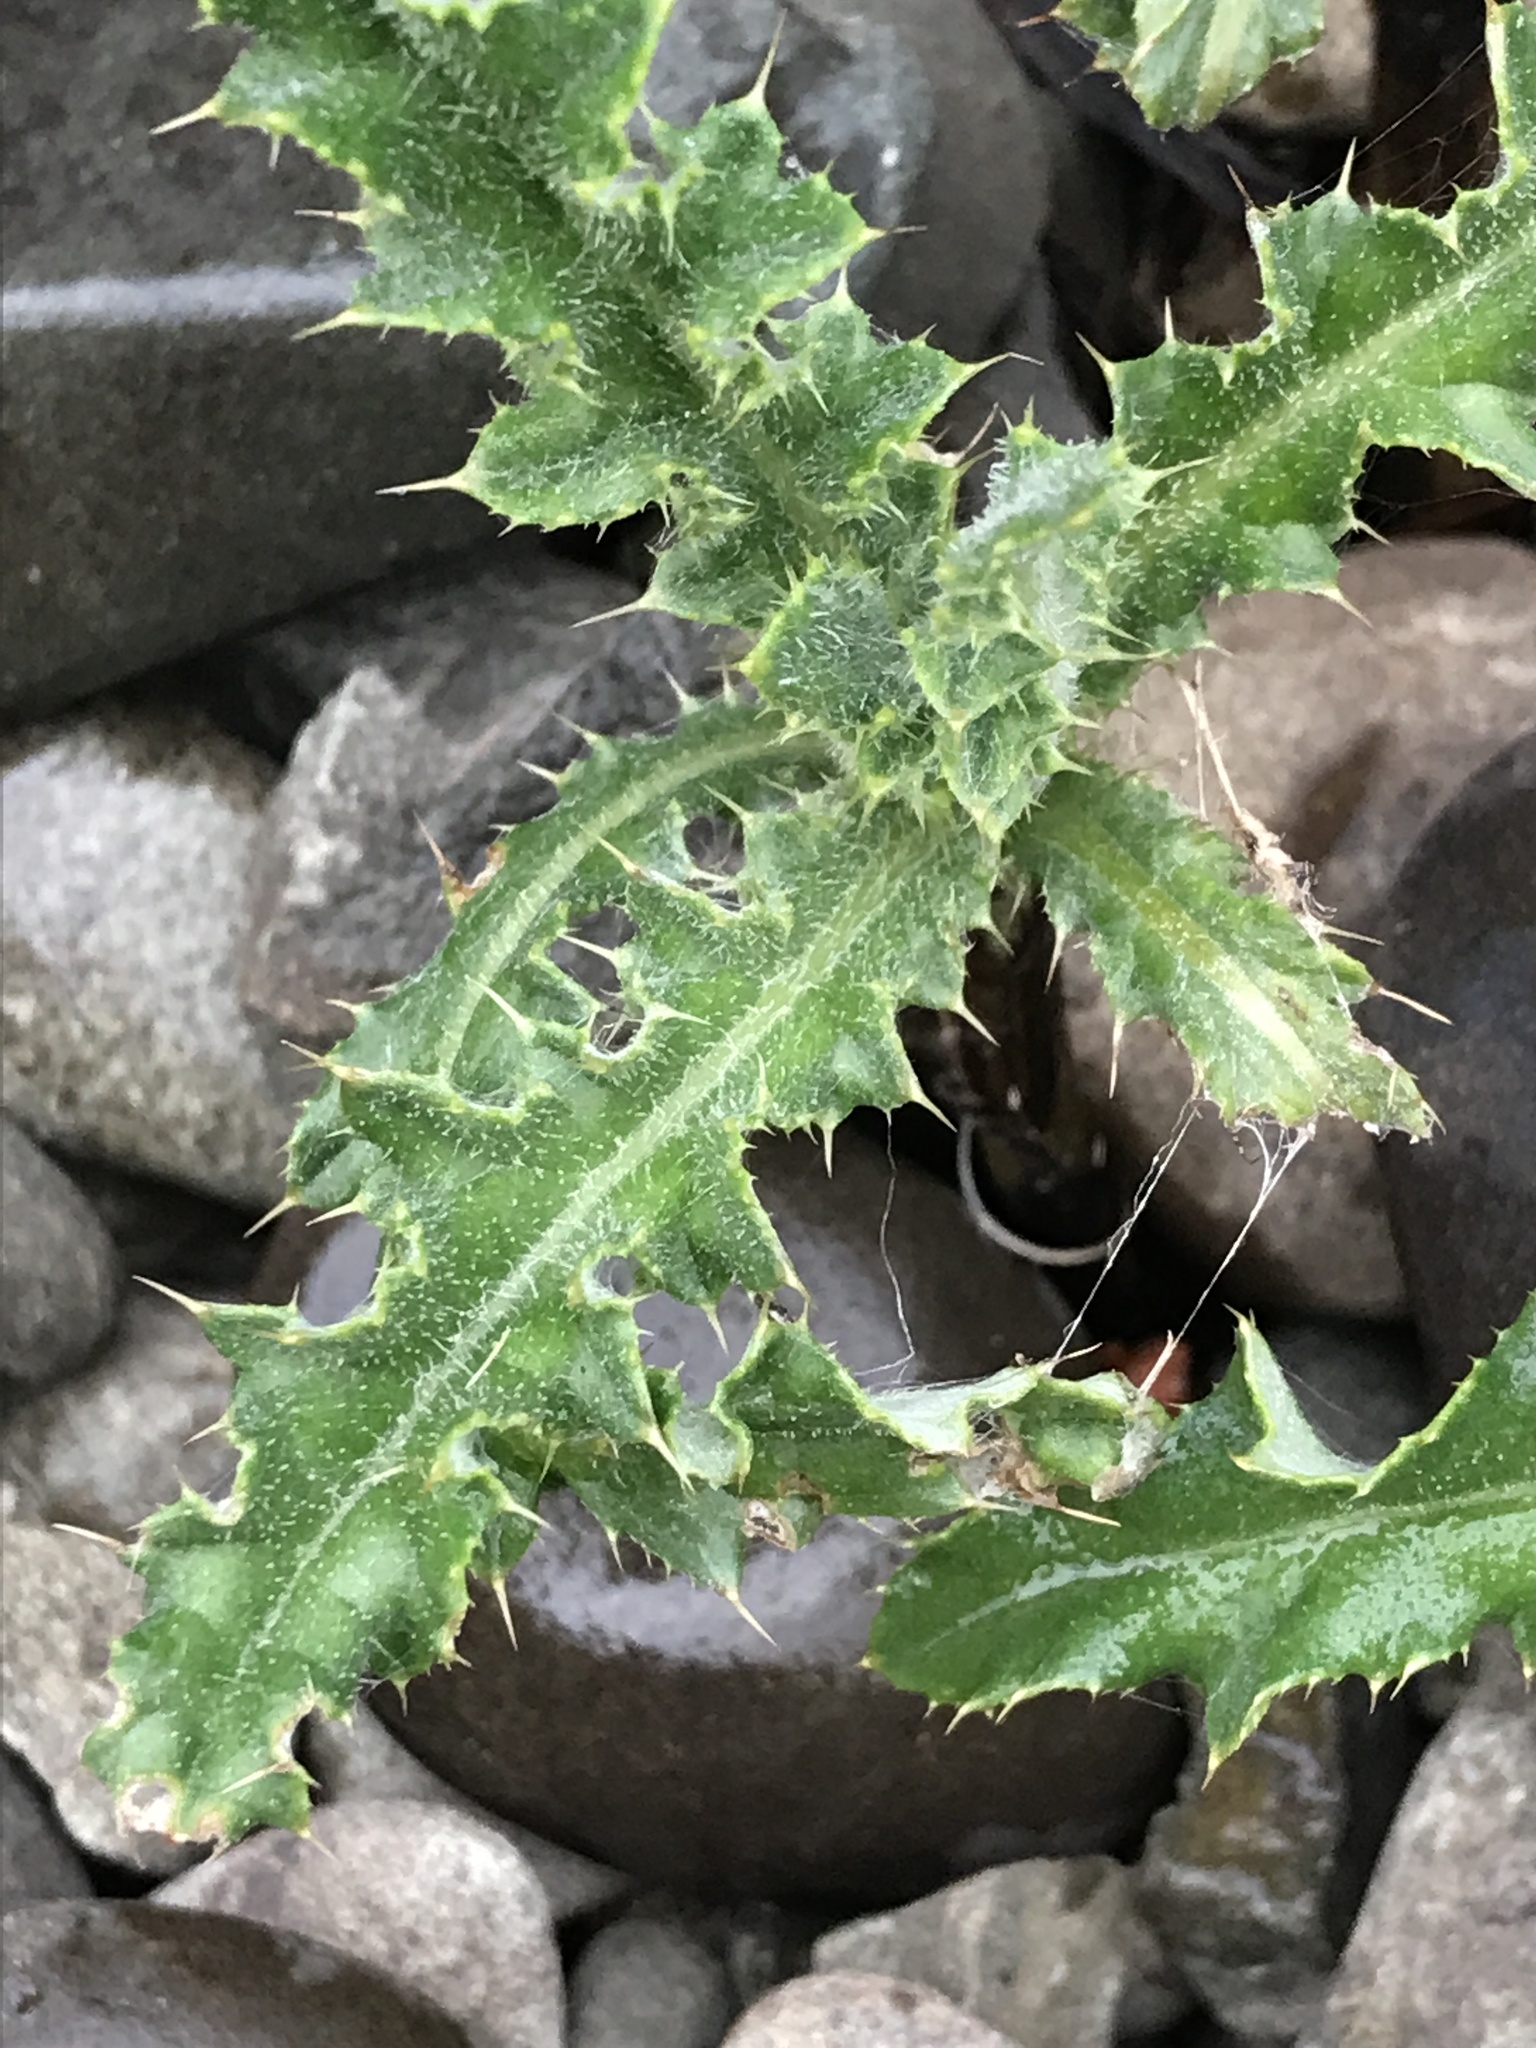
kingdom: Plantae
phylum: Tracheophyta
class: Magnoliopsida
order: Asterales
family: Asteraceae
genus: Cirsium
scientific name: Cirsium arvense
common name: Creeping thistle
